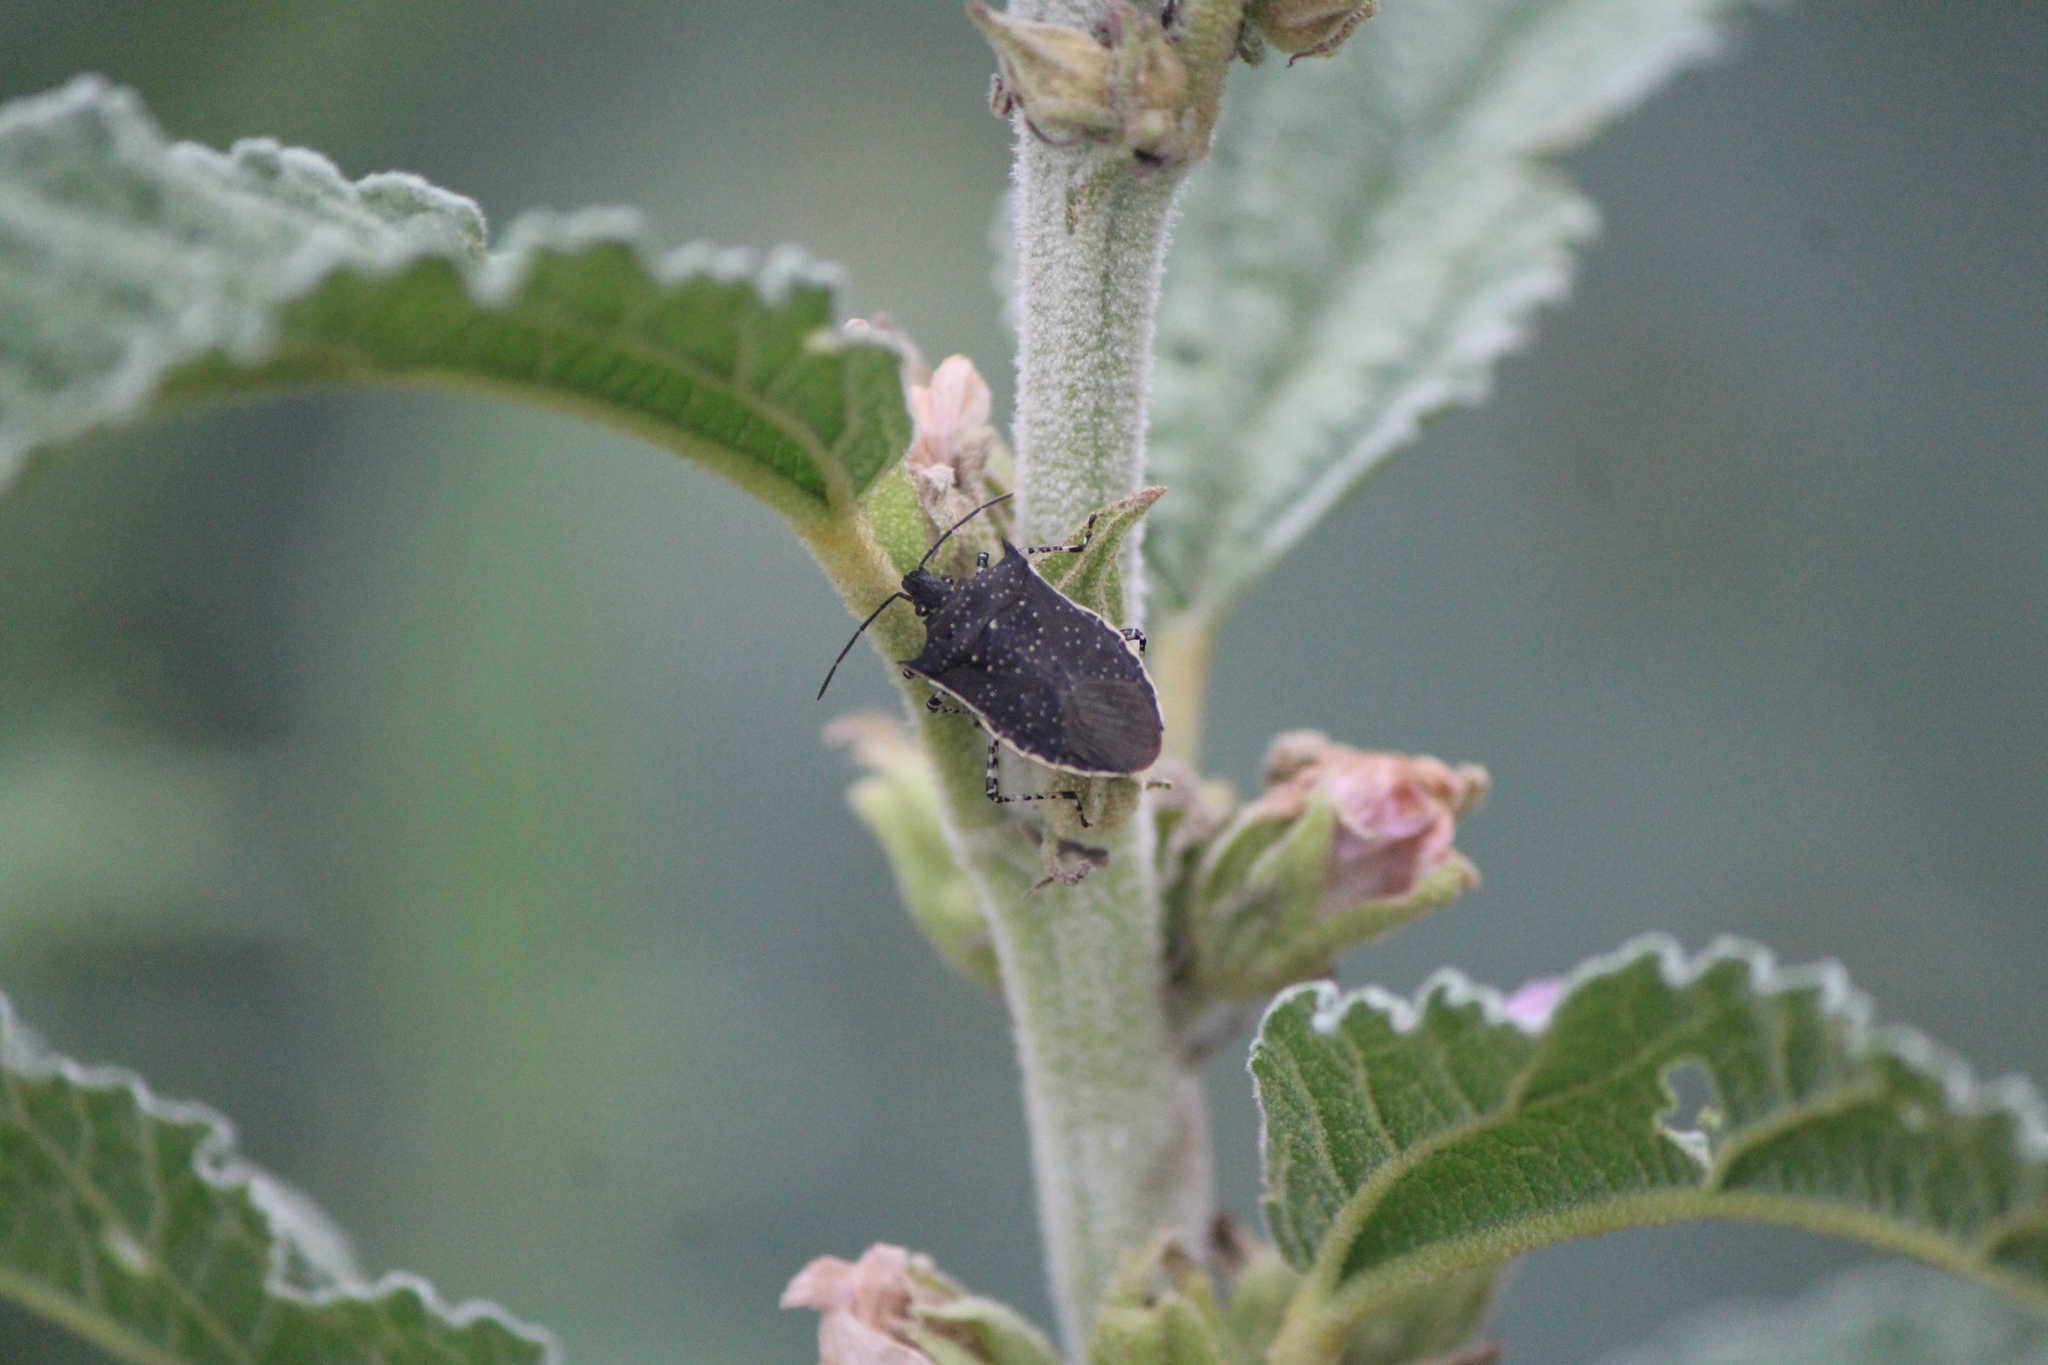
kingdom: Animalia
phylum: Arthropoda
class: Insecta
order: Hemiptera
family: Pentatomidae
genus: Padaeus
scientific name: Padaeus trivittatus
